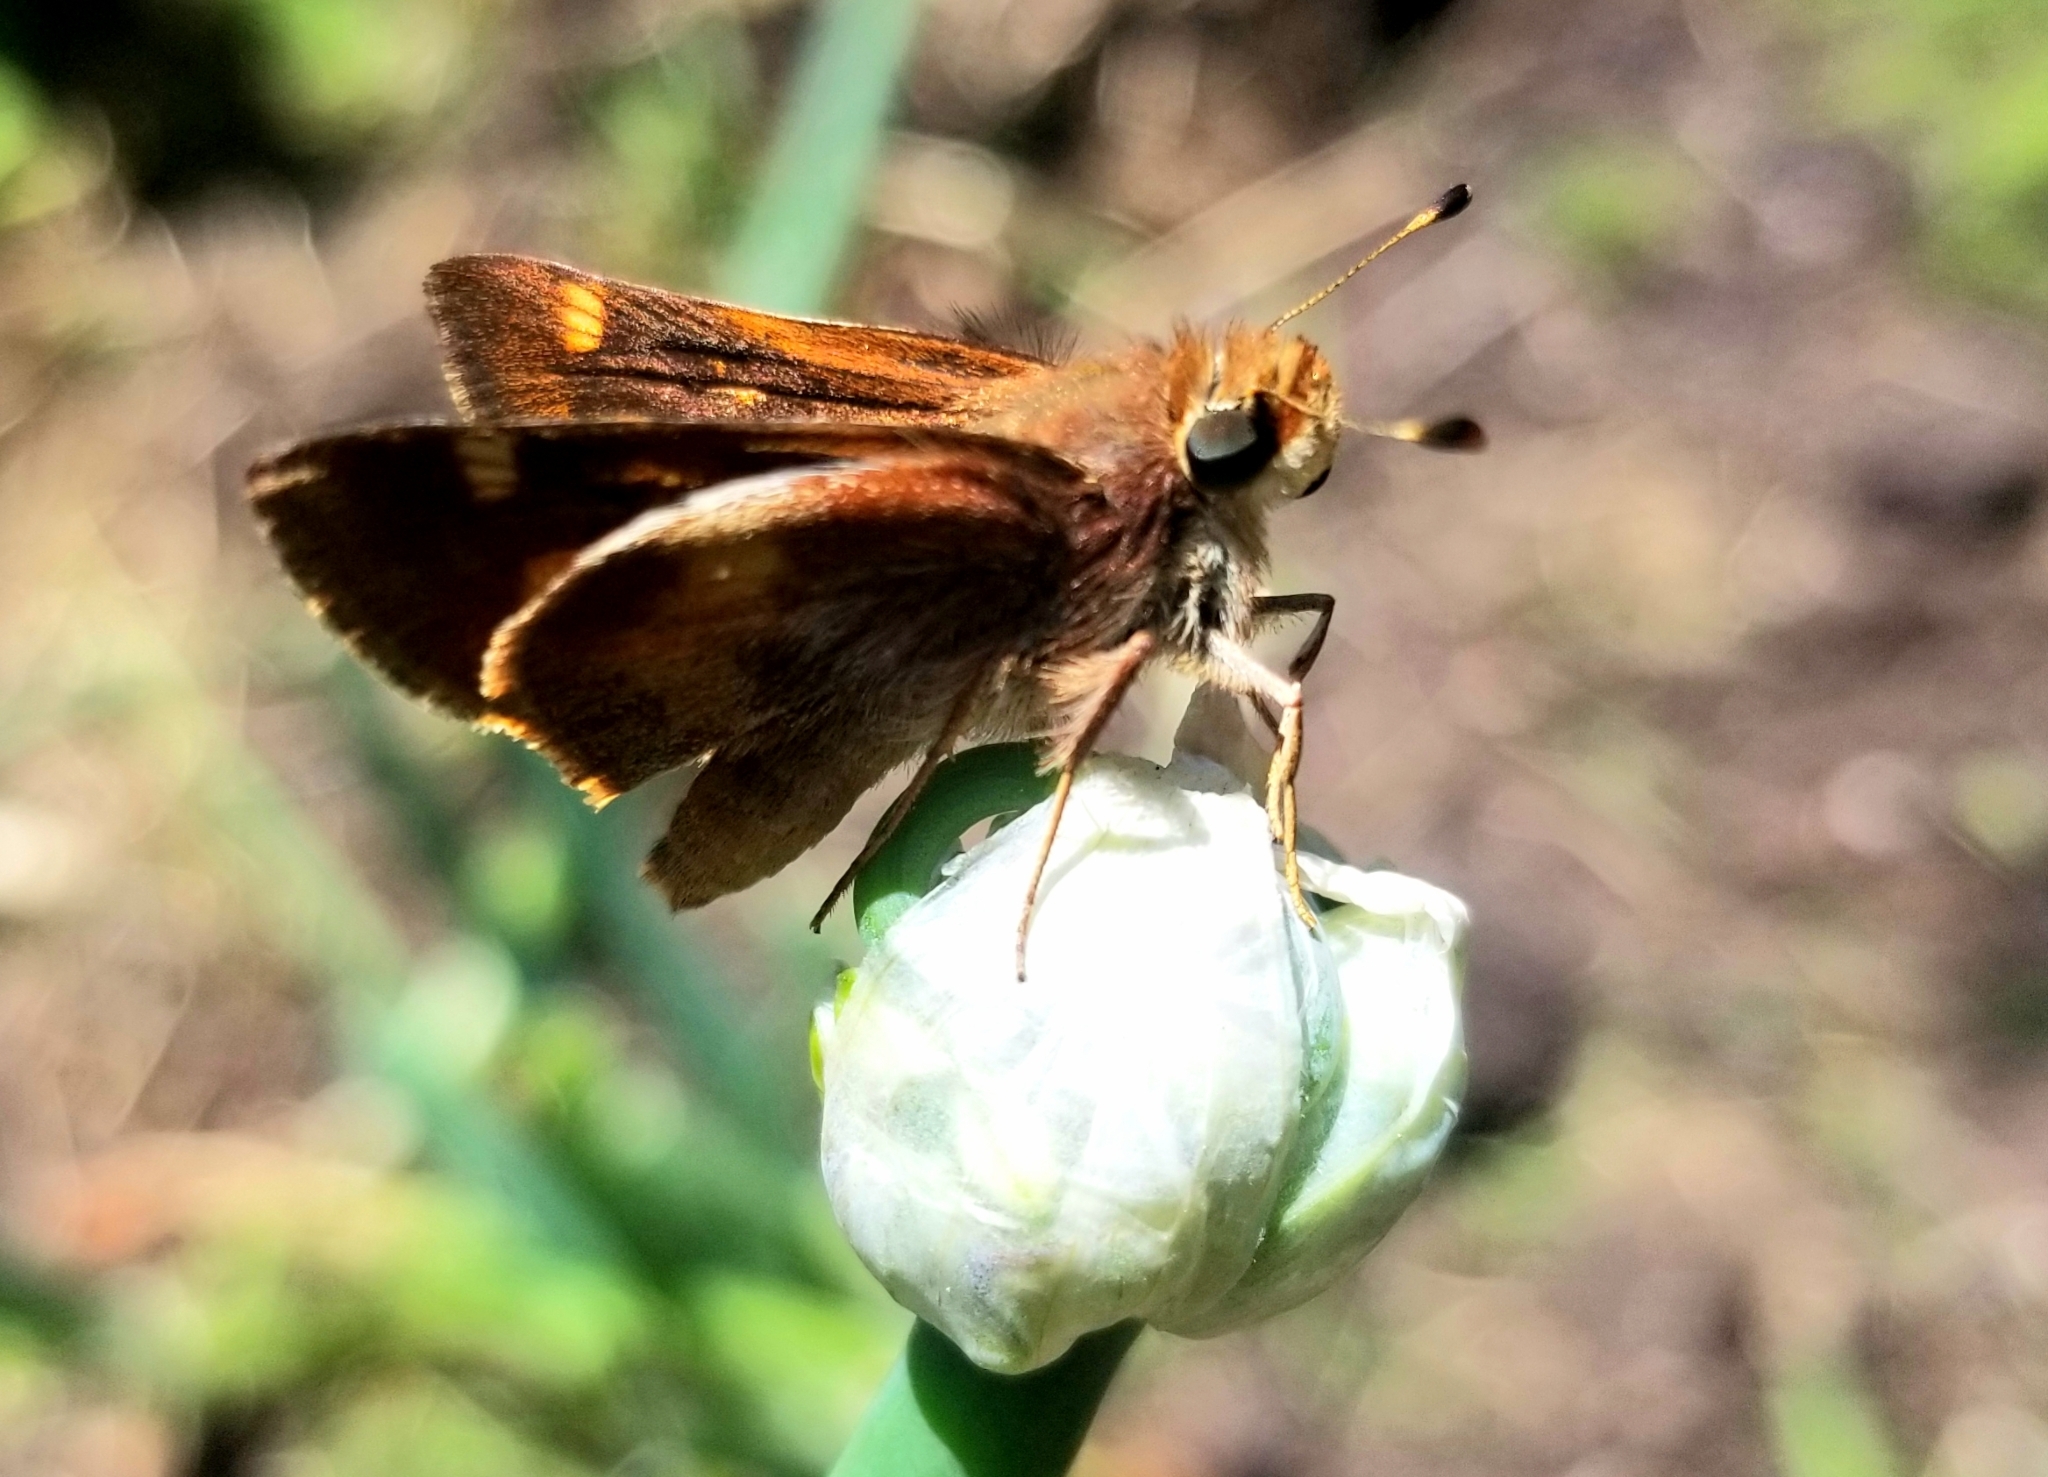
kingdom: Animalia
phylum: Arthropoda
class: Insecta
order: Lepidoptera
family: Hesperiidae
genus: Lon
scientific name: Lon melane
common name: Umber skipper
